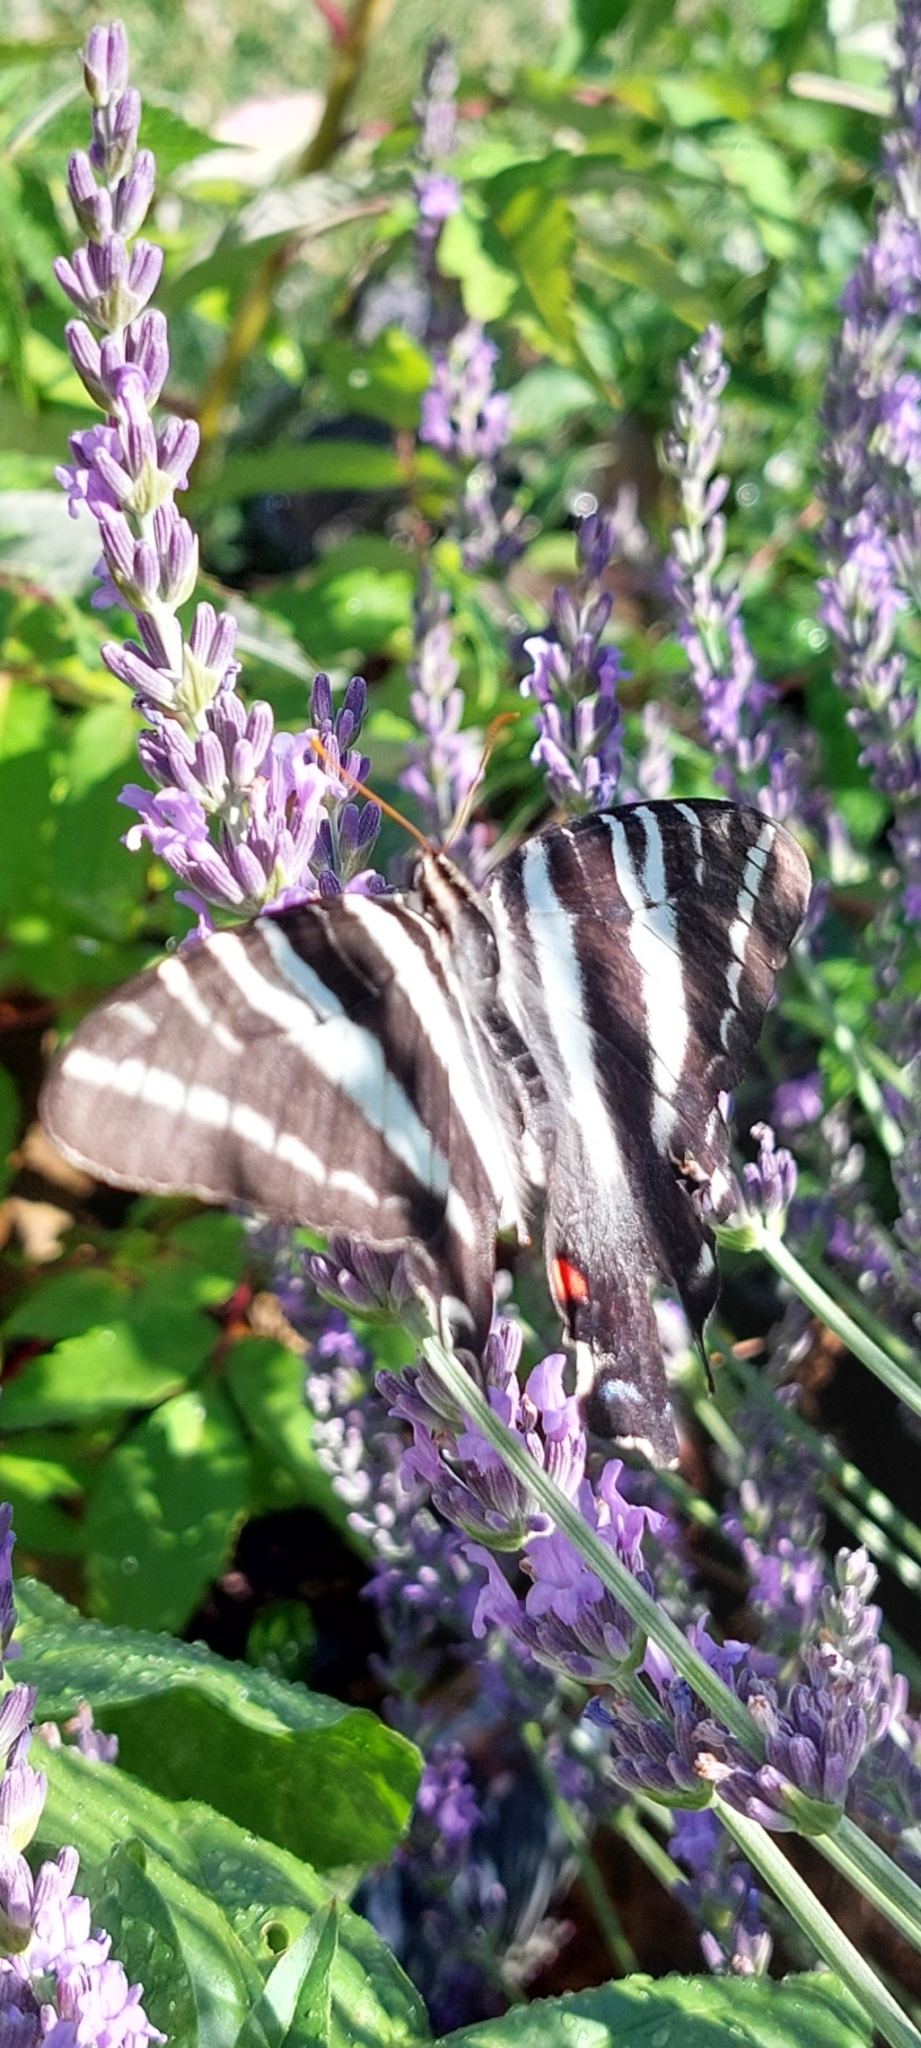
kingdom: Animalia
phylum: Arthropoda
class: Insecta
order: Lepidoptera
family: Papilionidae
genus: Protographium
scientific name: Protographium marcellus
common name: Zebra swallowtail
